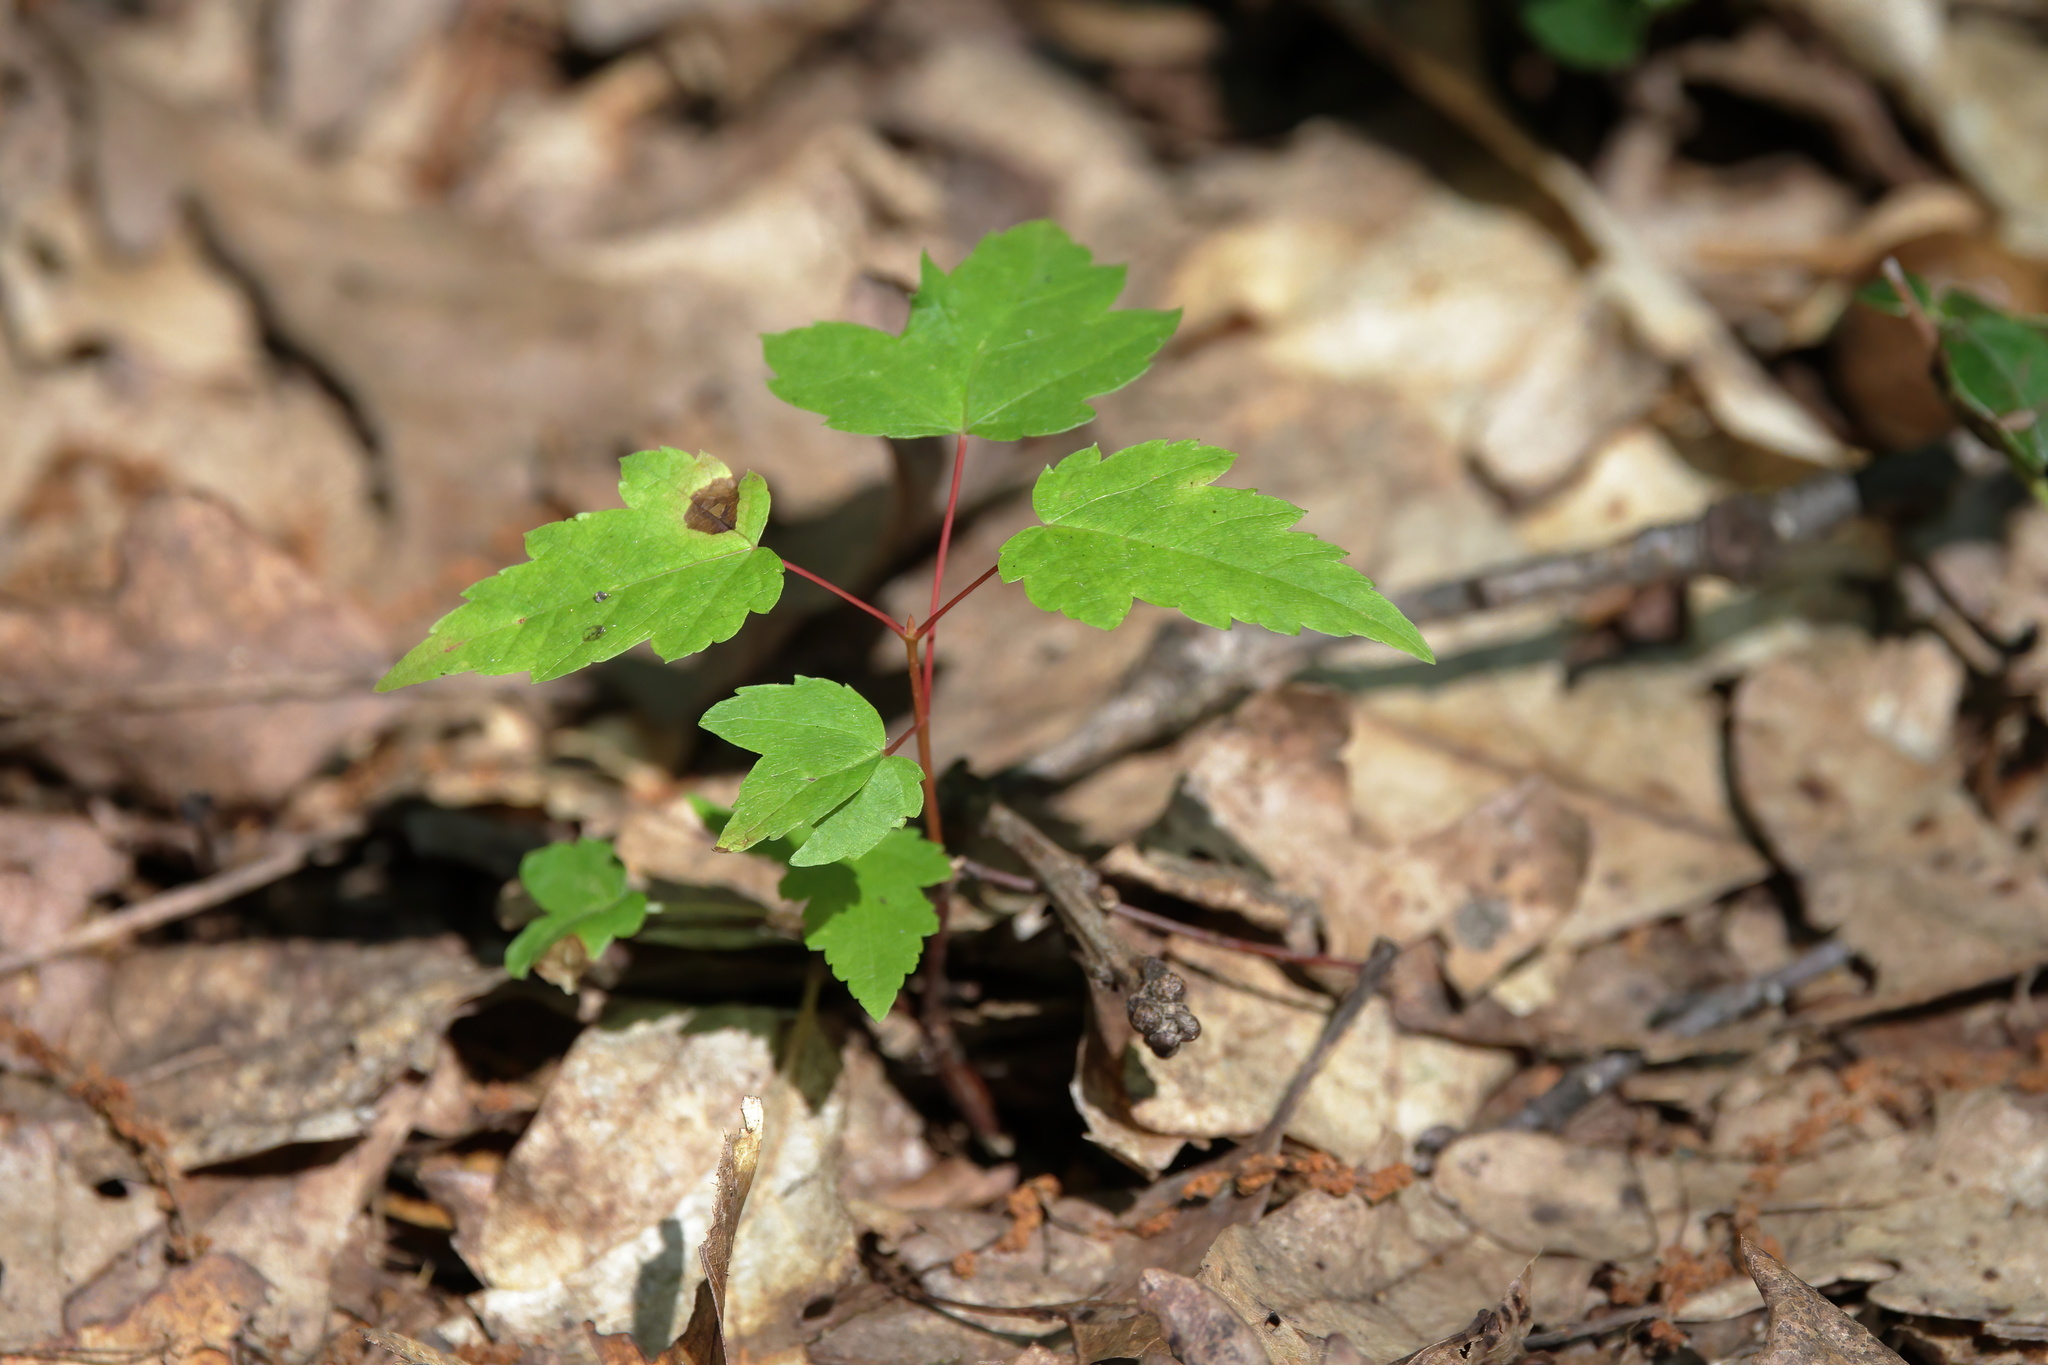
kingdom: Plantae
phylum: Tracheophyta
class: Magnoliopsida
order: Sapindales
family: Sapindaceae
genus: Acer
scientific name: Acer rubrum
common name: Red maple
